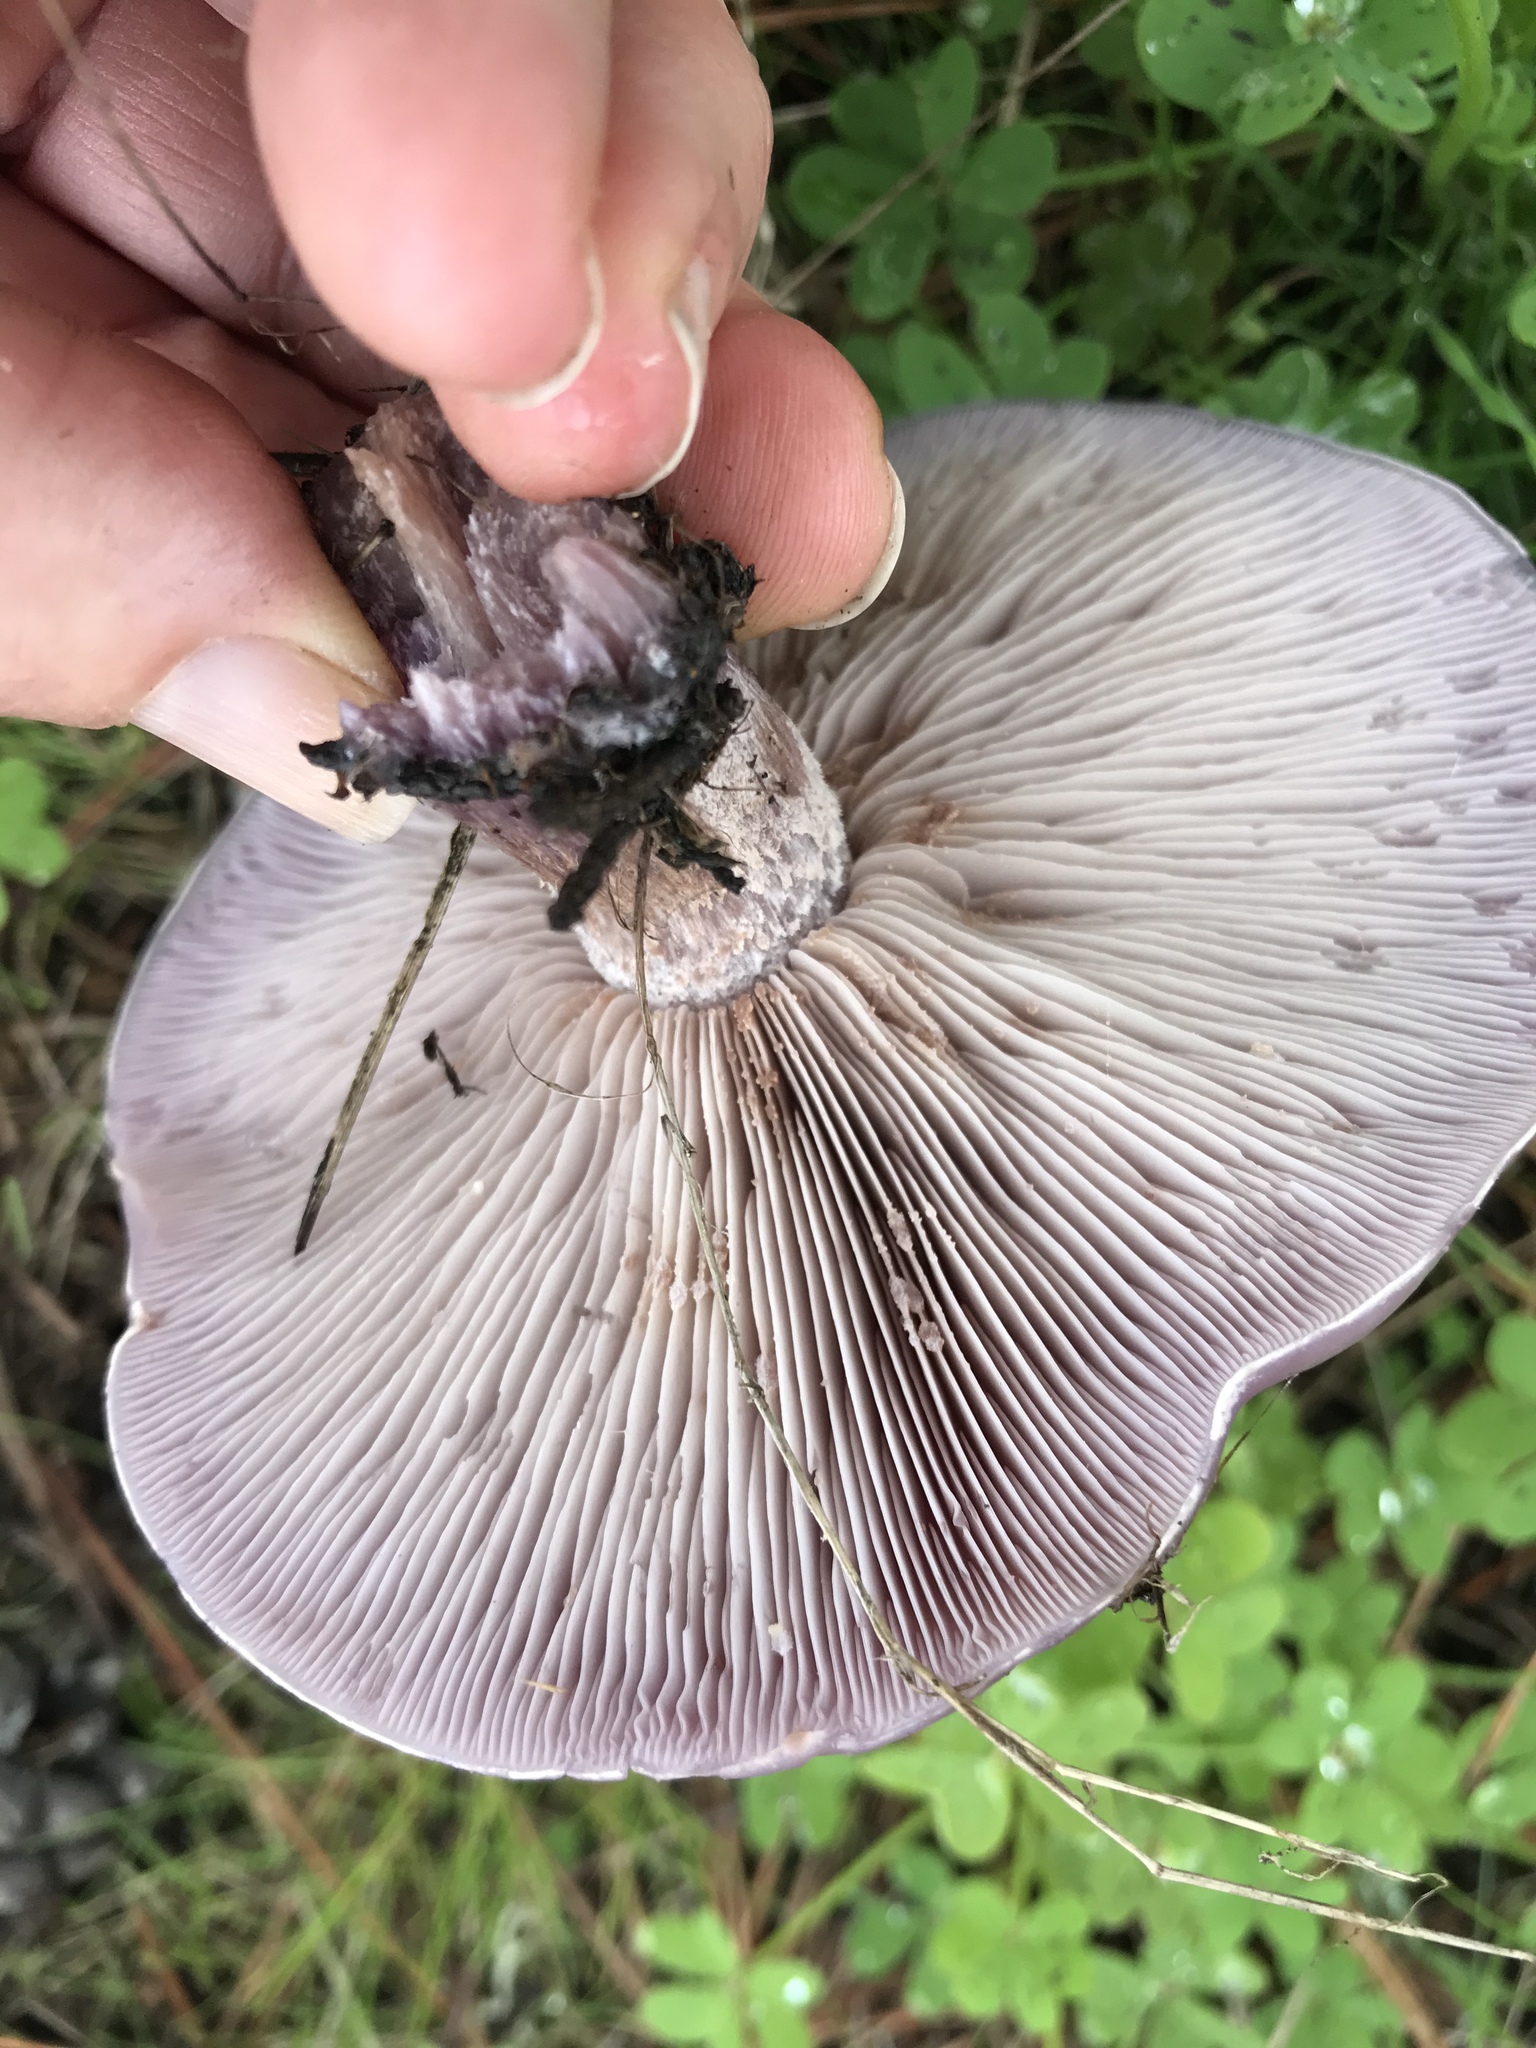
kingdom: Fungi
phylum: Basidiomycota
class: Agaricomycetes
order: Agaricales
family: Tricholomataceae
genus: Collybia
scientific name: Collybia
